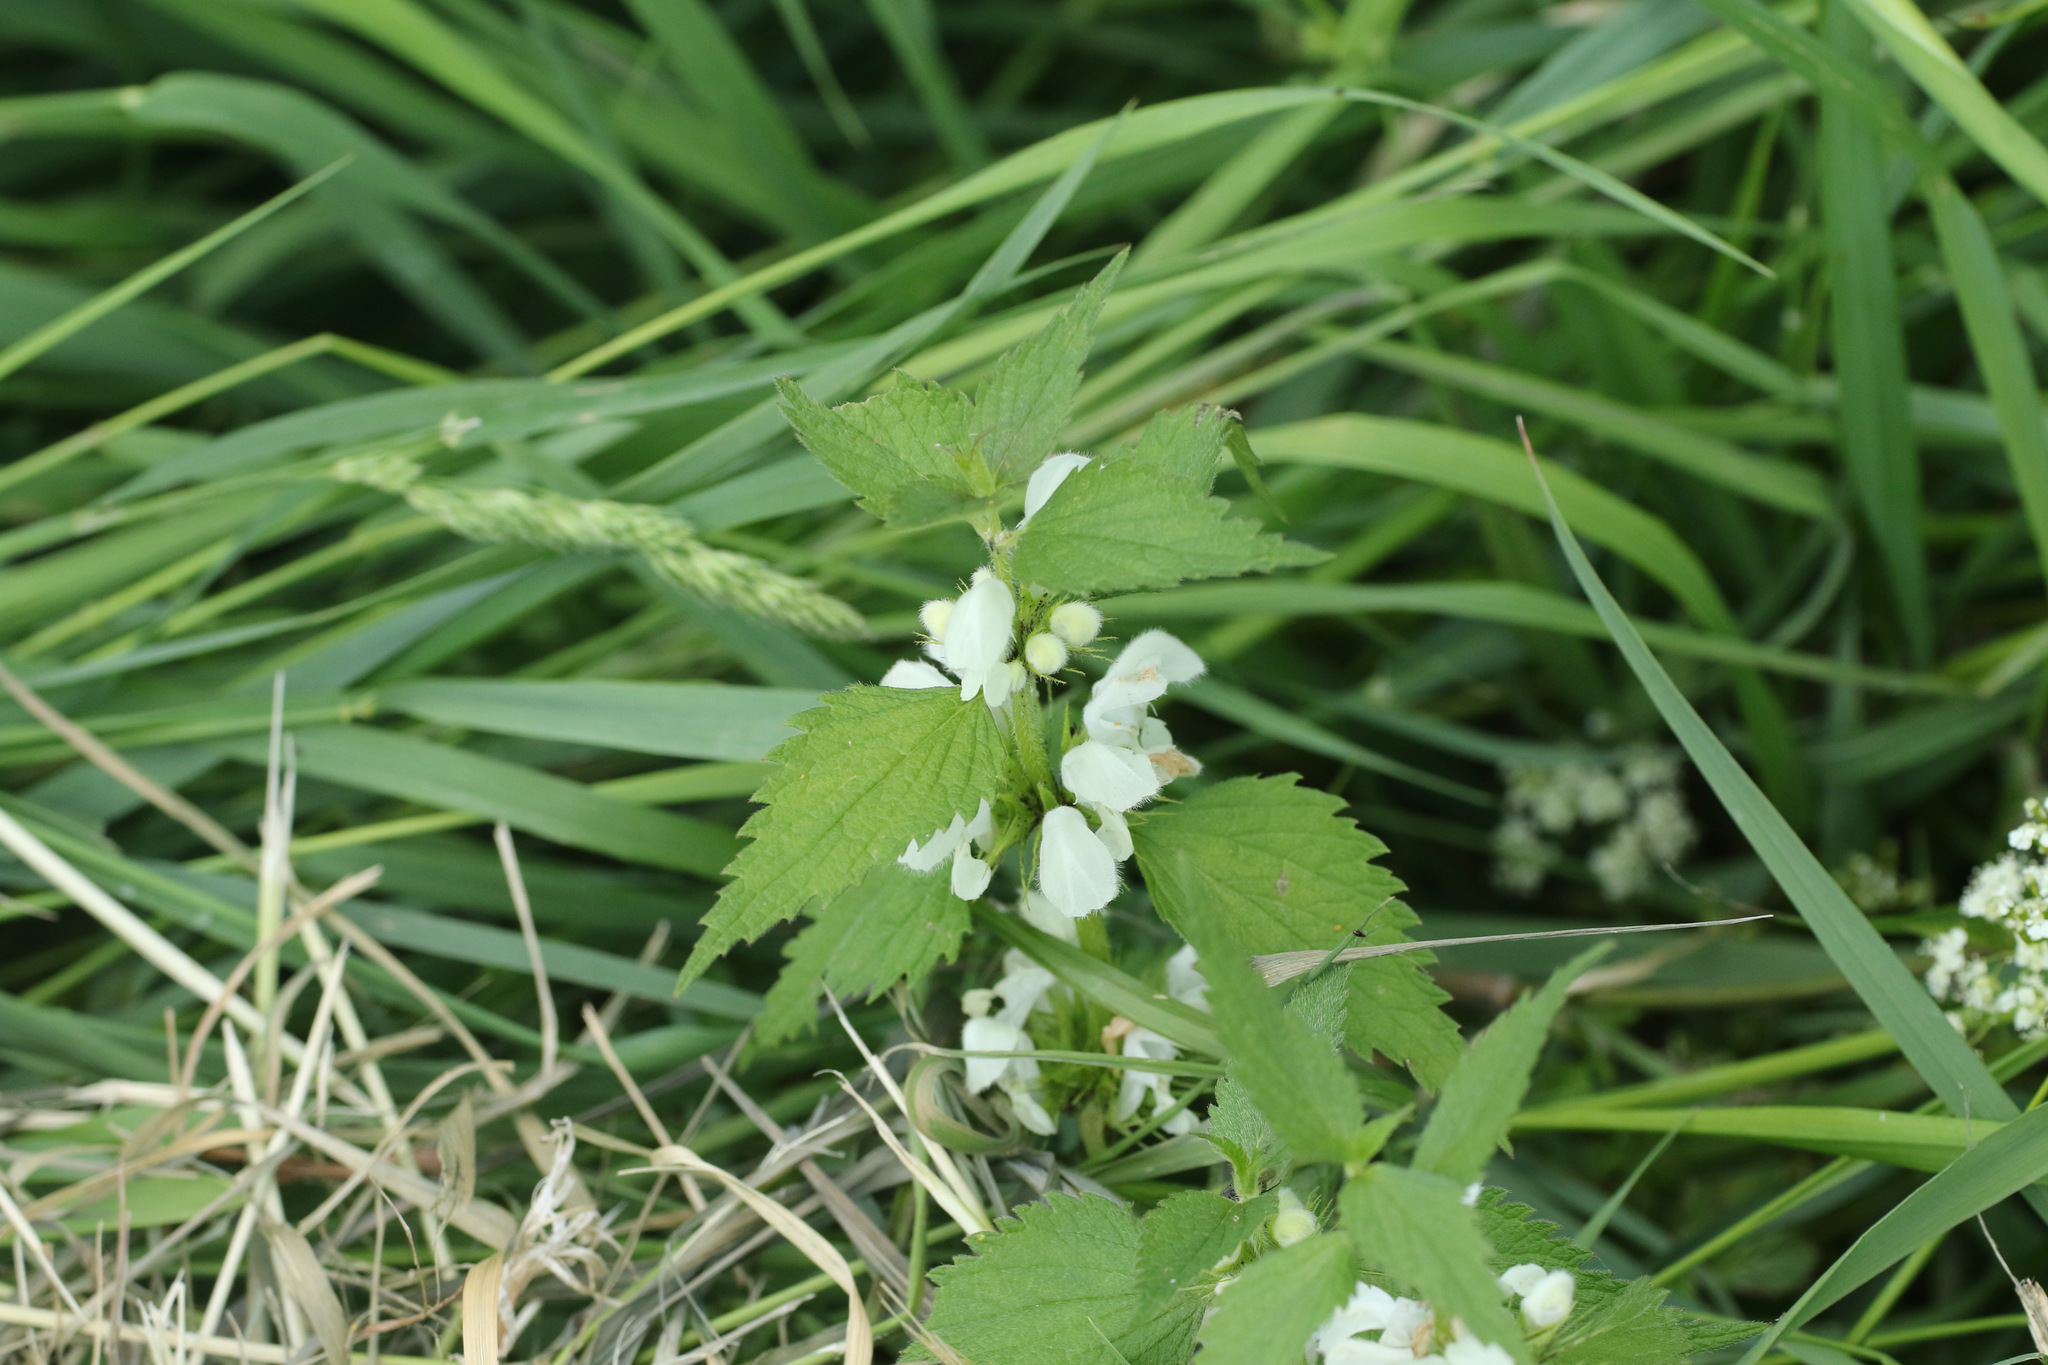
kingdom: Plantae
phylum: Tracheophyta
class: Magnoliopsida
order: Lamiales
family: Lamiaceae
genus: Lamium
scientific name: Lamium album
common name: White dead-nettle
